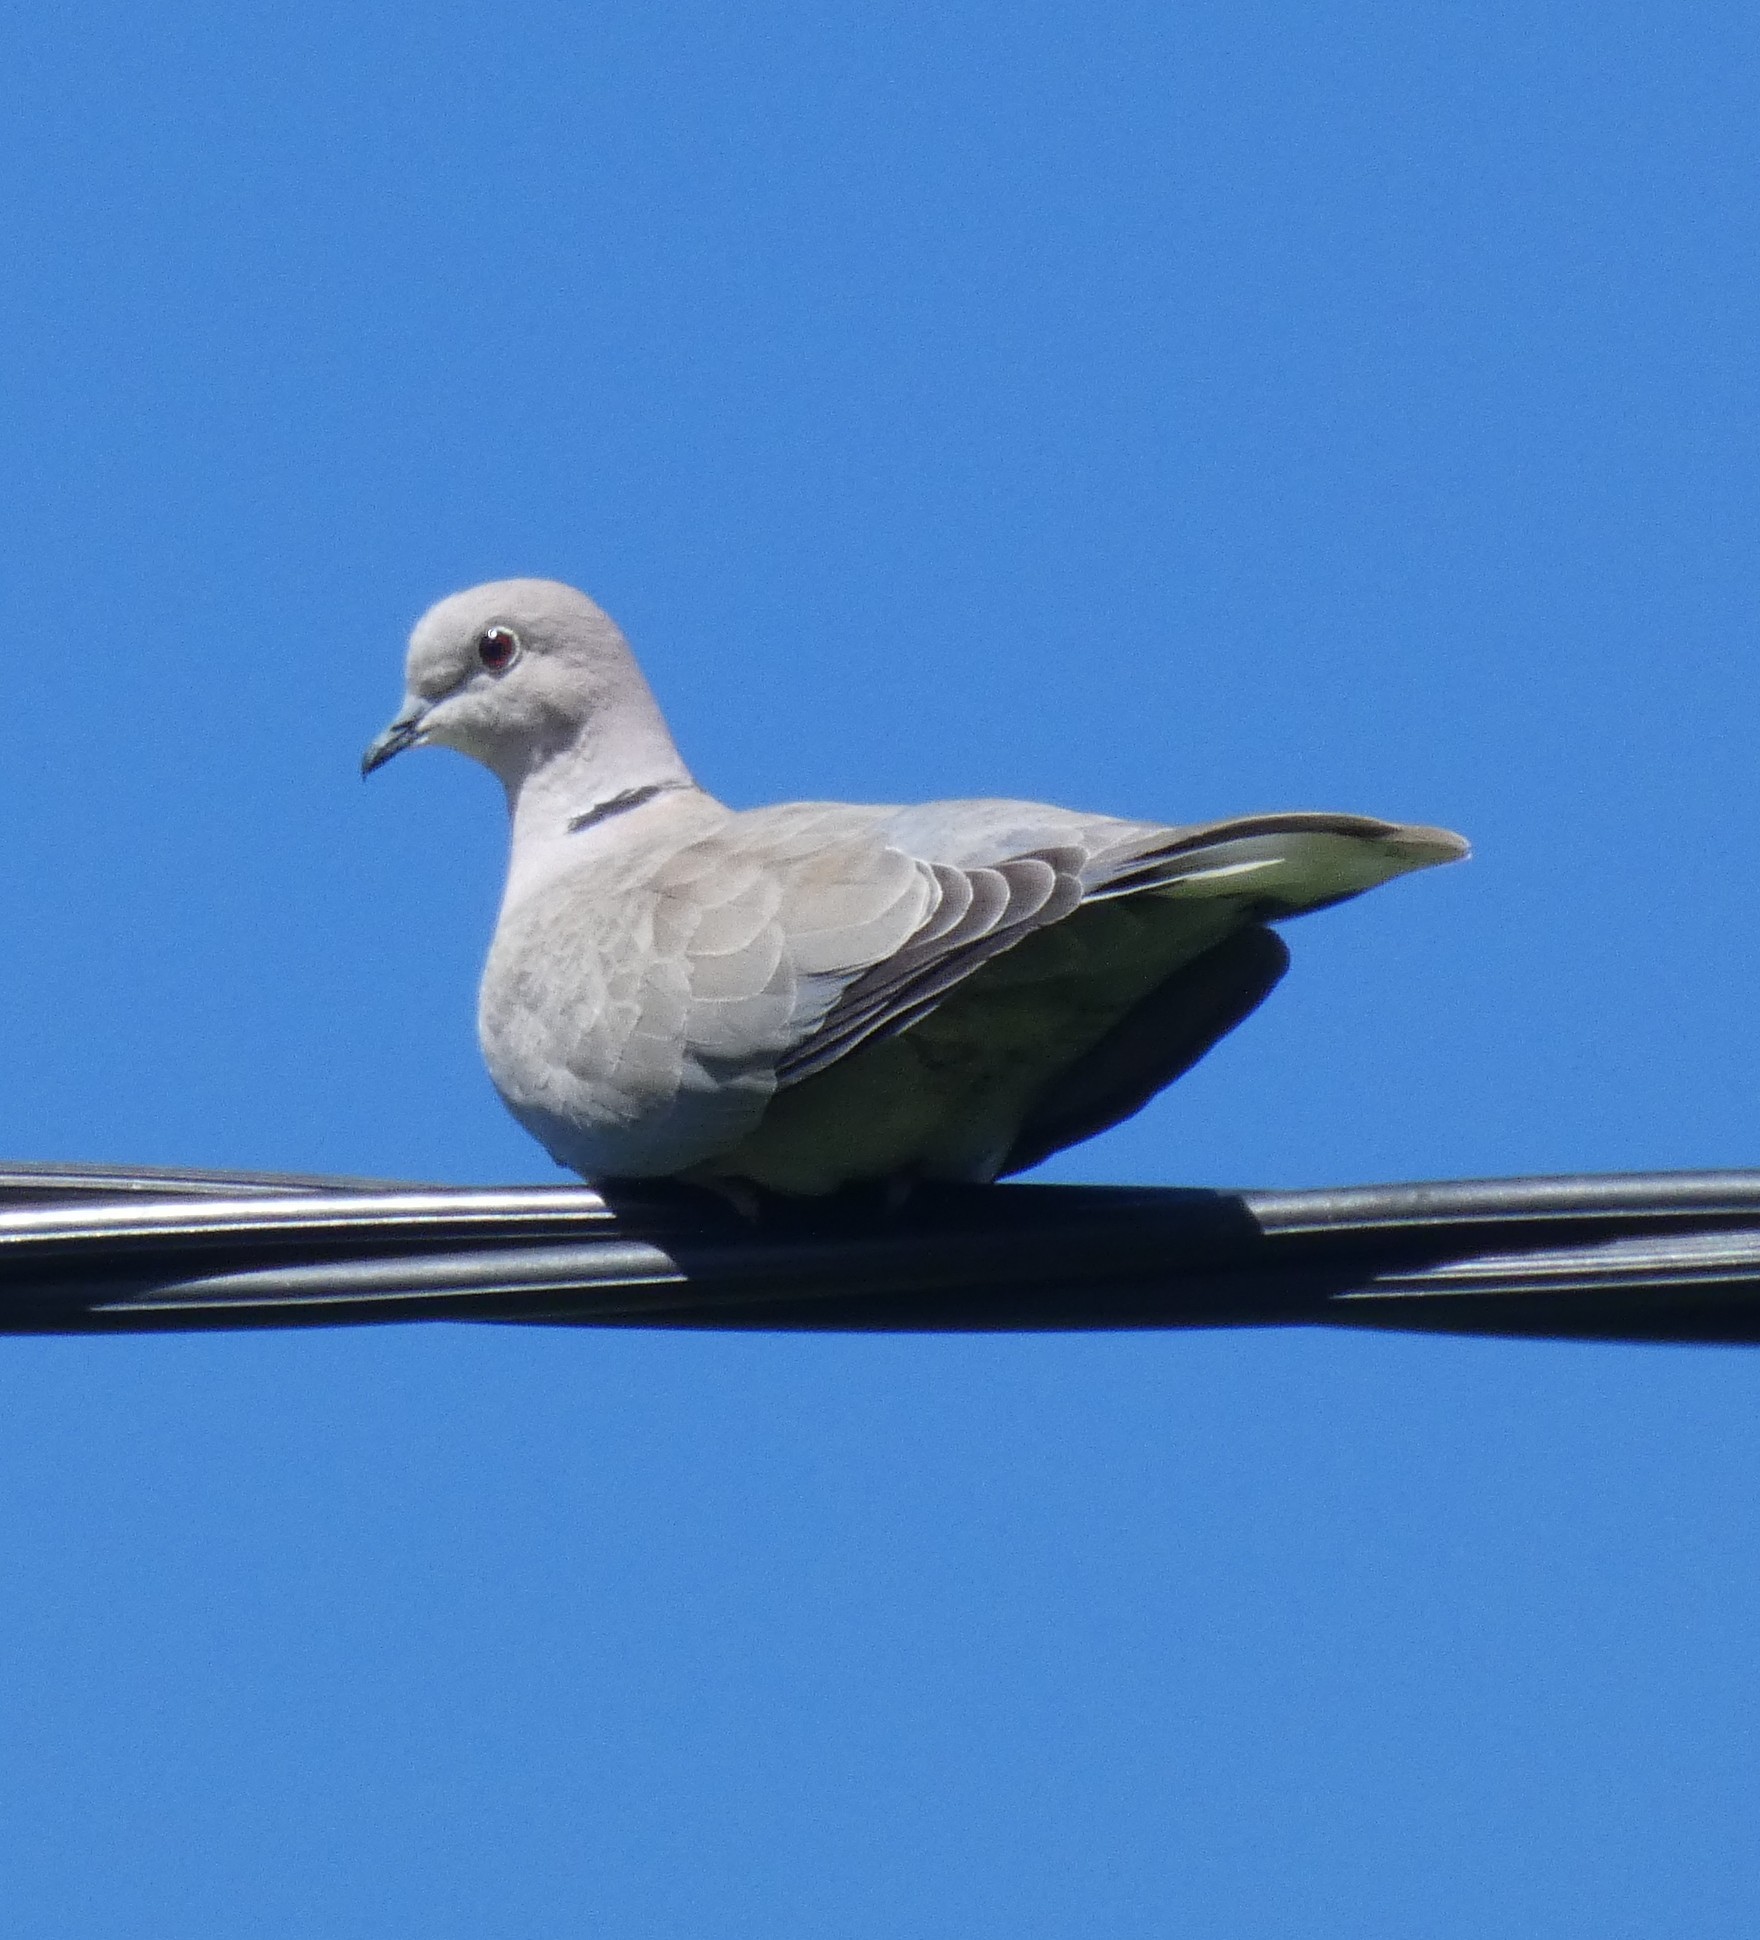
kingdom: Animalia
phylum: Chordata
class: Aves
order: Columbiformes
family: Columbidae
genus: Streptopelia
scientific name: Streptopelia decaocto
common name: Eurasian collared dove
